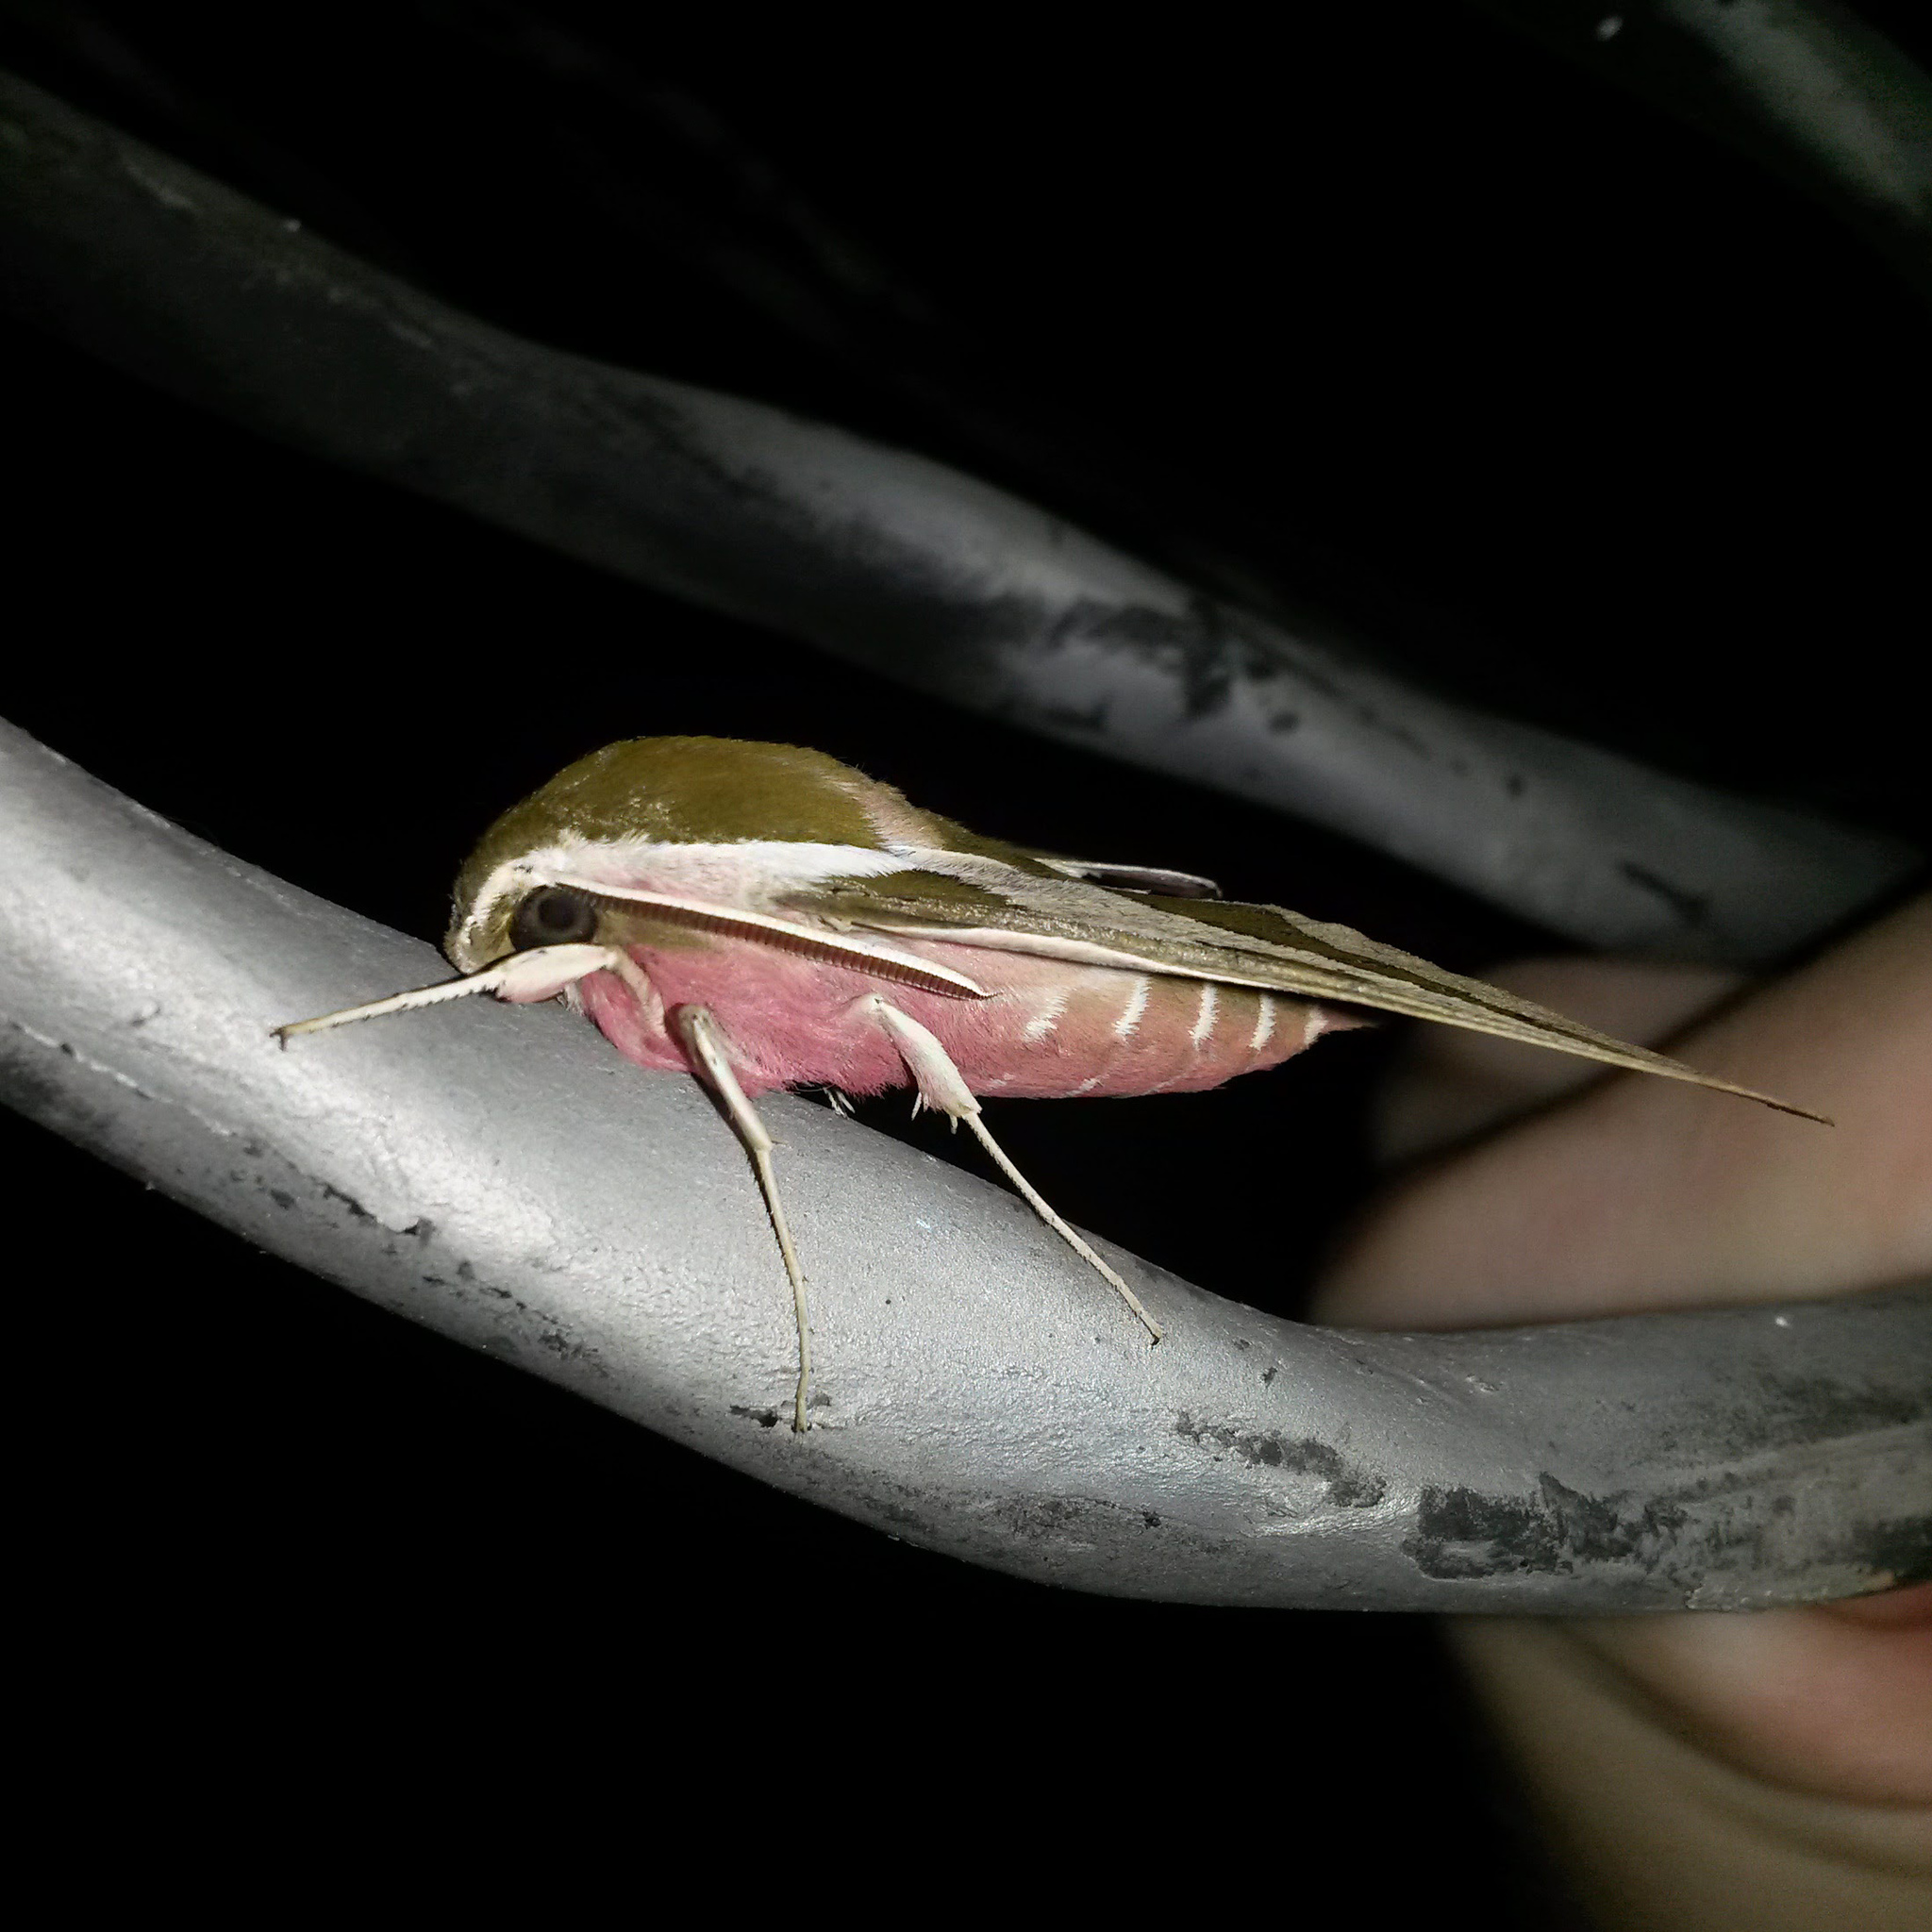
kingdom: Animalia
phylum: Arthropoda
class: Insecta
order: Lepidoptera
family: Sphingidae
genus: Hyles
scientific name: Hyles euphorbiae
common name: Spurge hawk-moth
